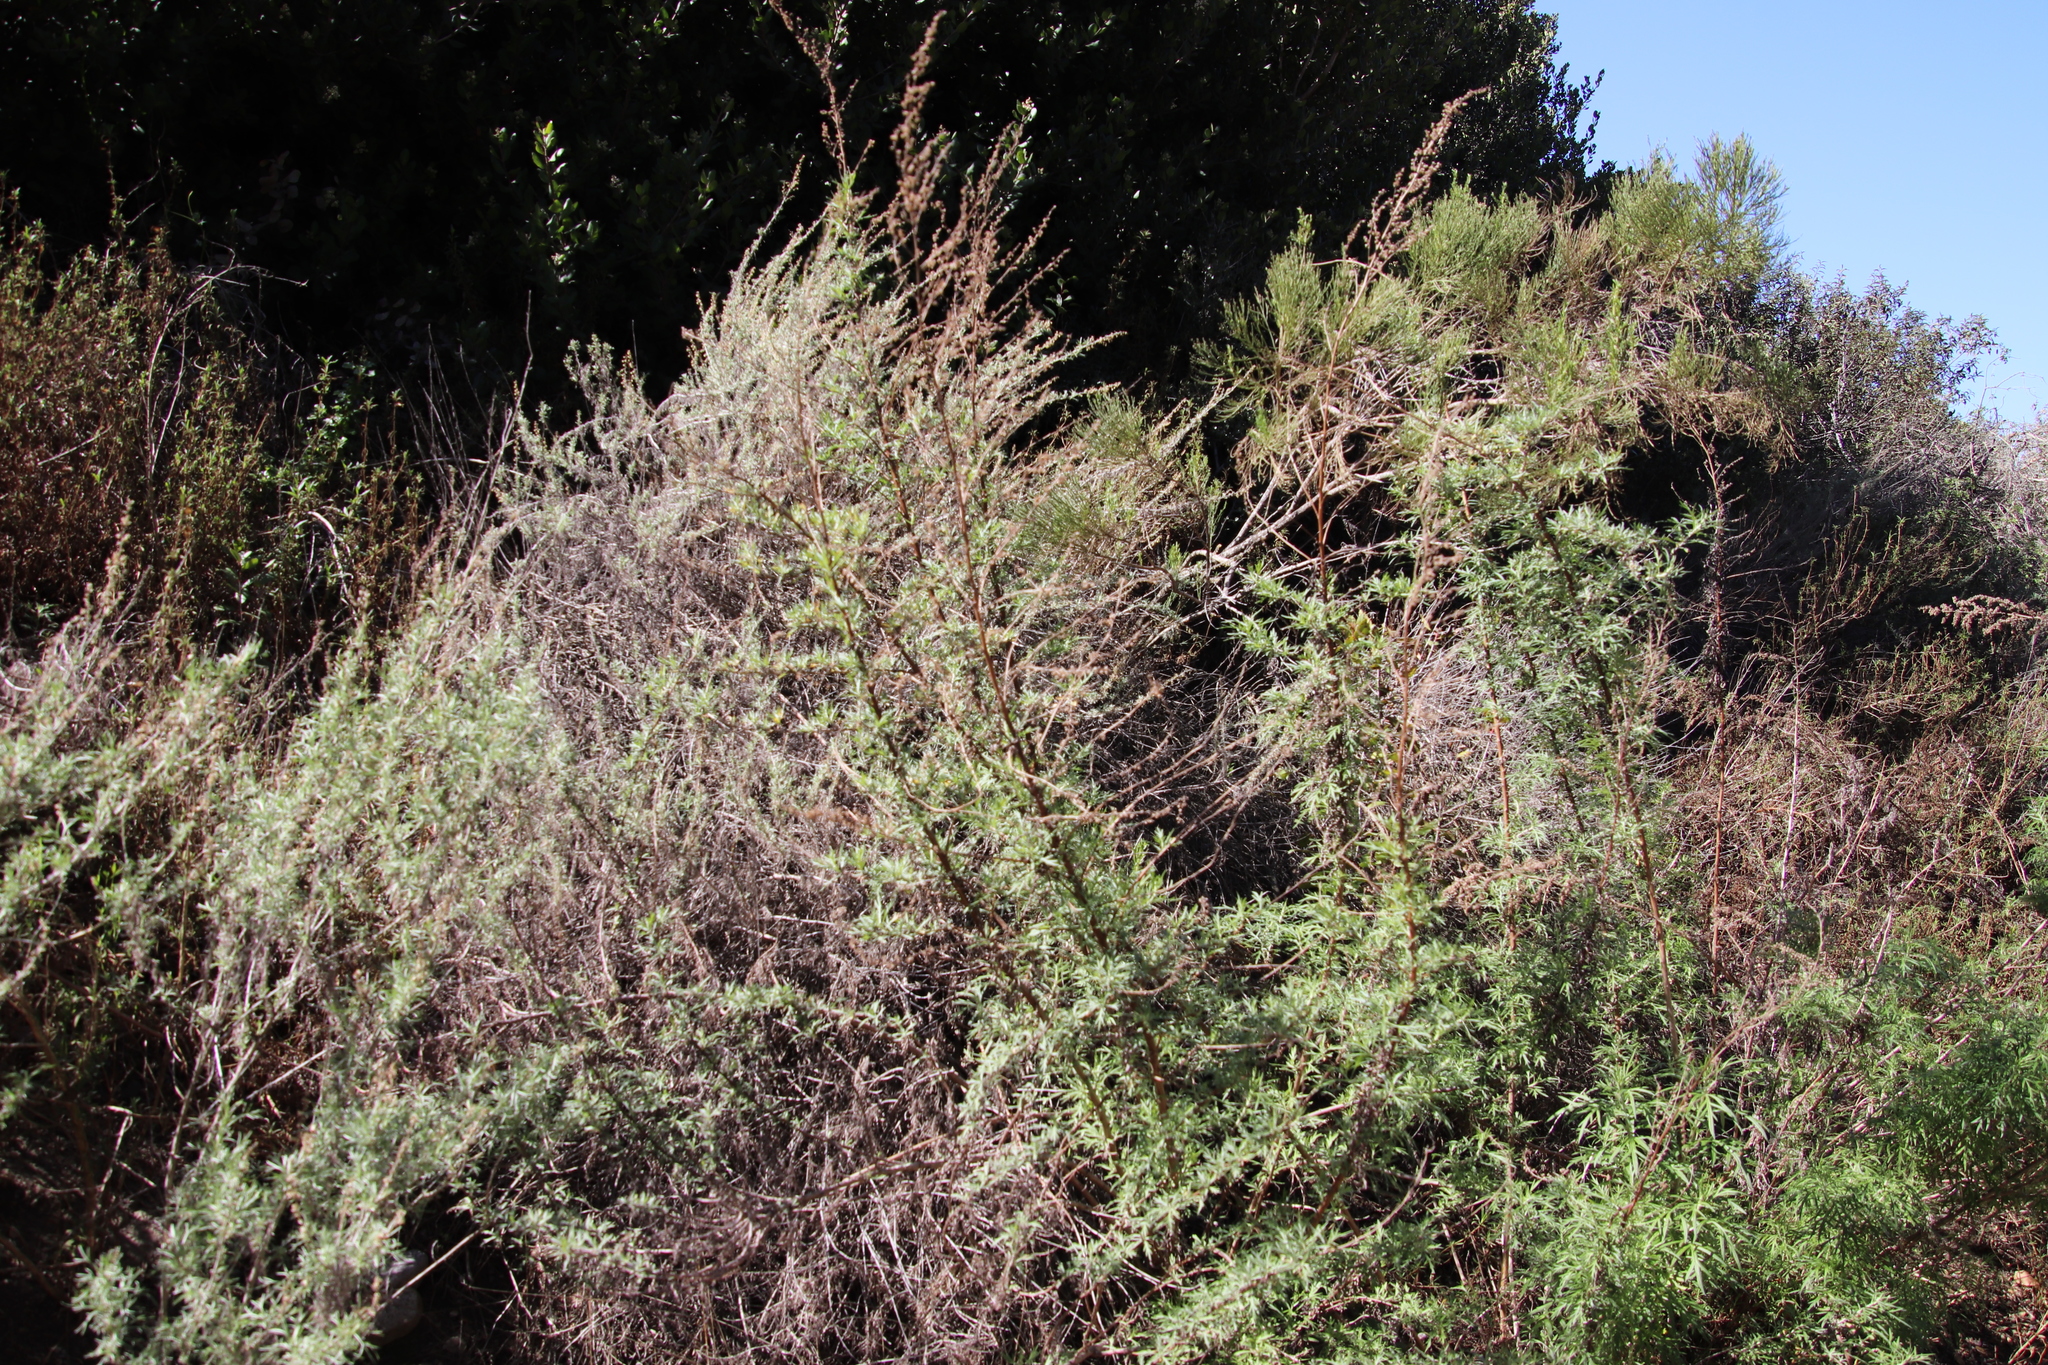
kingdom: Plantae
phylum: Tracheophyta
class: Magnoliopsida
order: Asterales
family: Asteraceae
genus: Artemisia
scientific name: Artemisia palmeri
